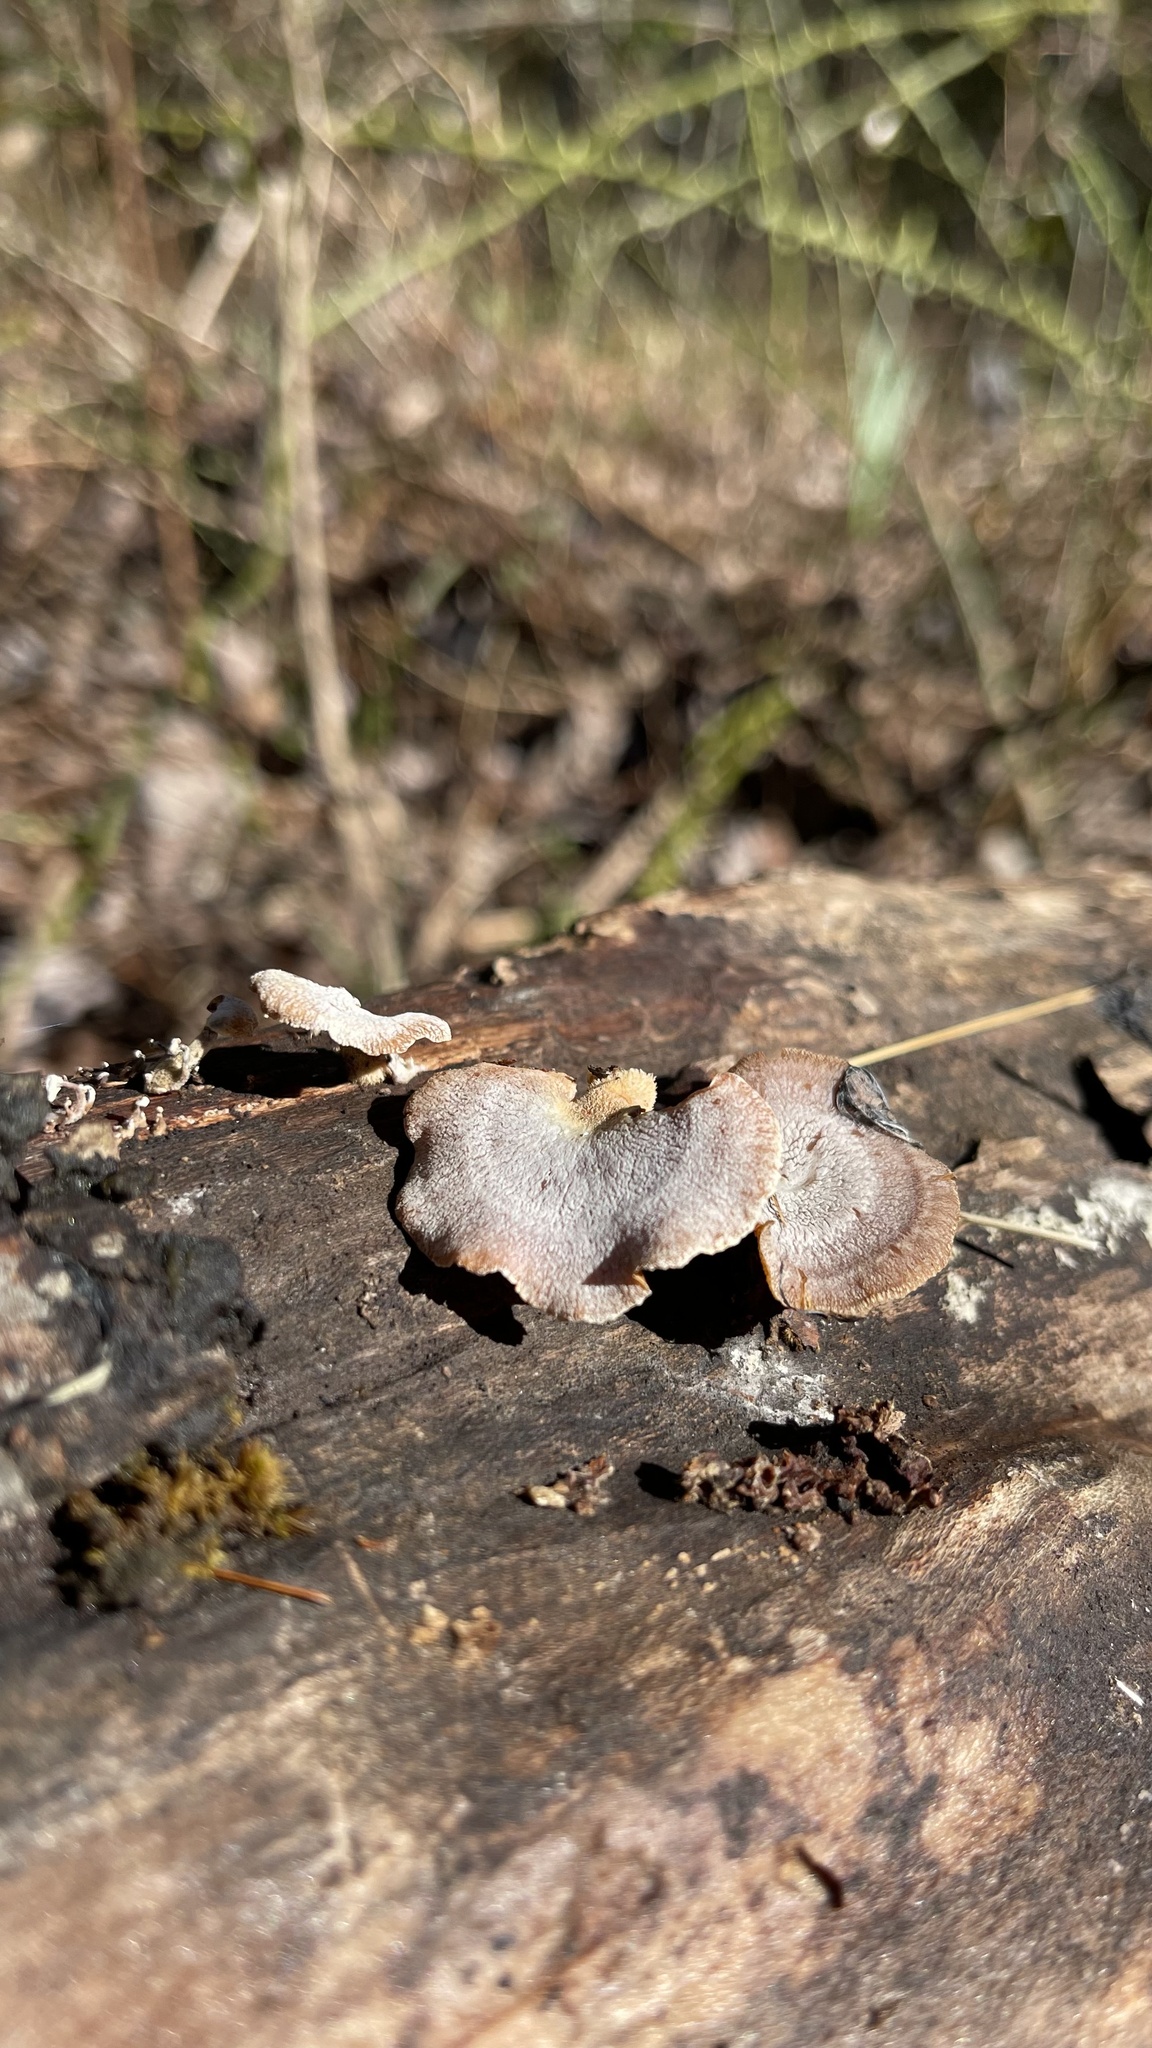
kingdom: Fungi
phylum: Basidiomycota
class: Agaricomycetes
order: Agaricales
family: Mycenaceae
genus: Panellus
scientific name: Panellus stipticus
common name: Bitter oysterling
